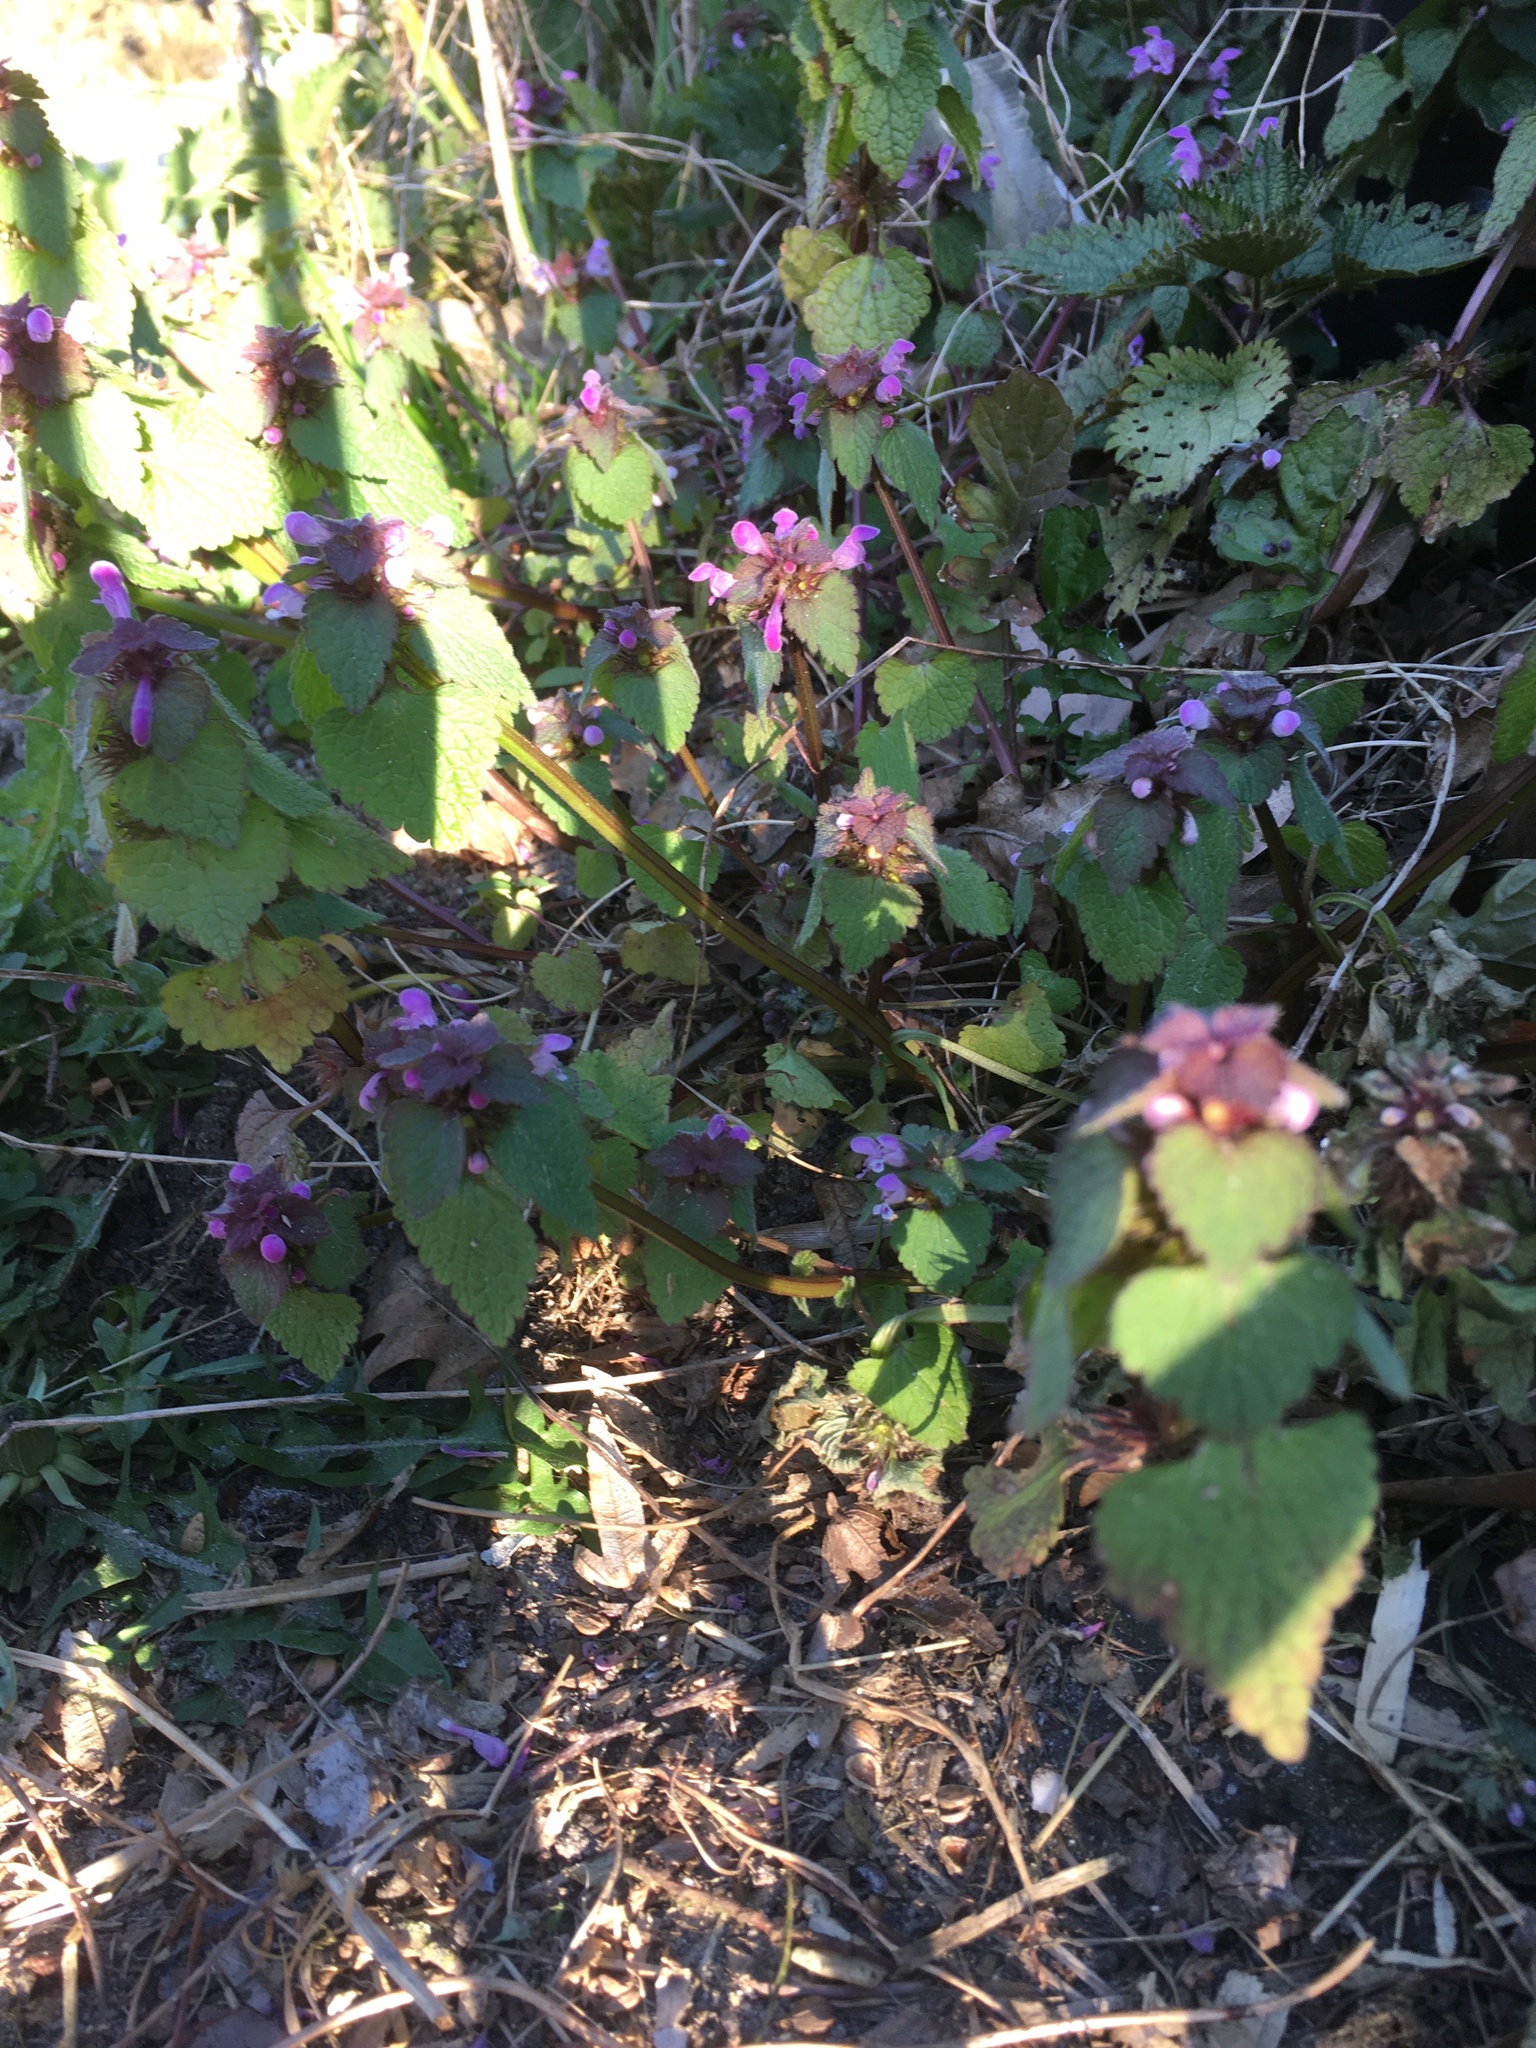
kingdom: Plantae
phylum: Tracheophyta
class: Magnoliopsida
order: Lamiales
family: Lamiaceae
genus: Lamium
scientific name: Lamium purpureum
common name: Red dead-nettle
